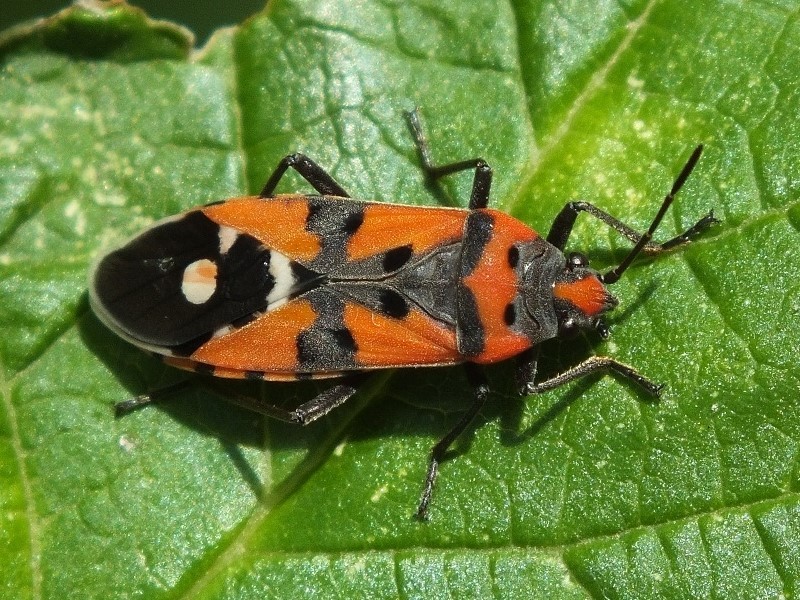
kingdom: Animalia
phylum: Arthropoda
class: Insecta
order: Hemiptera
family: Lygaeidae
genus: Lygaeus
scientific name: Lygaeus equestris
